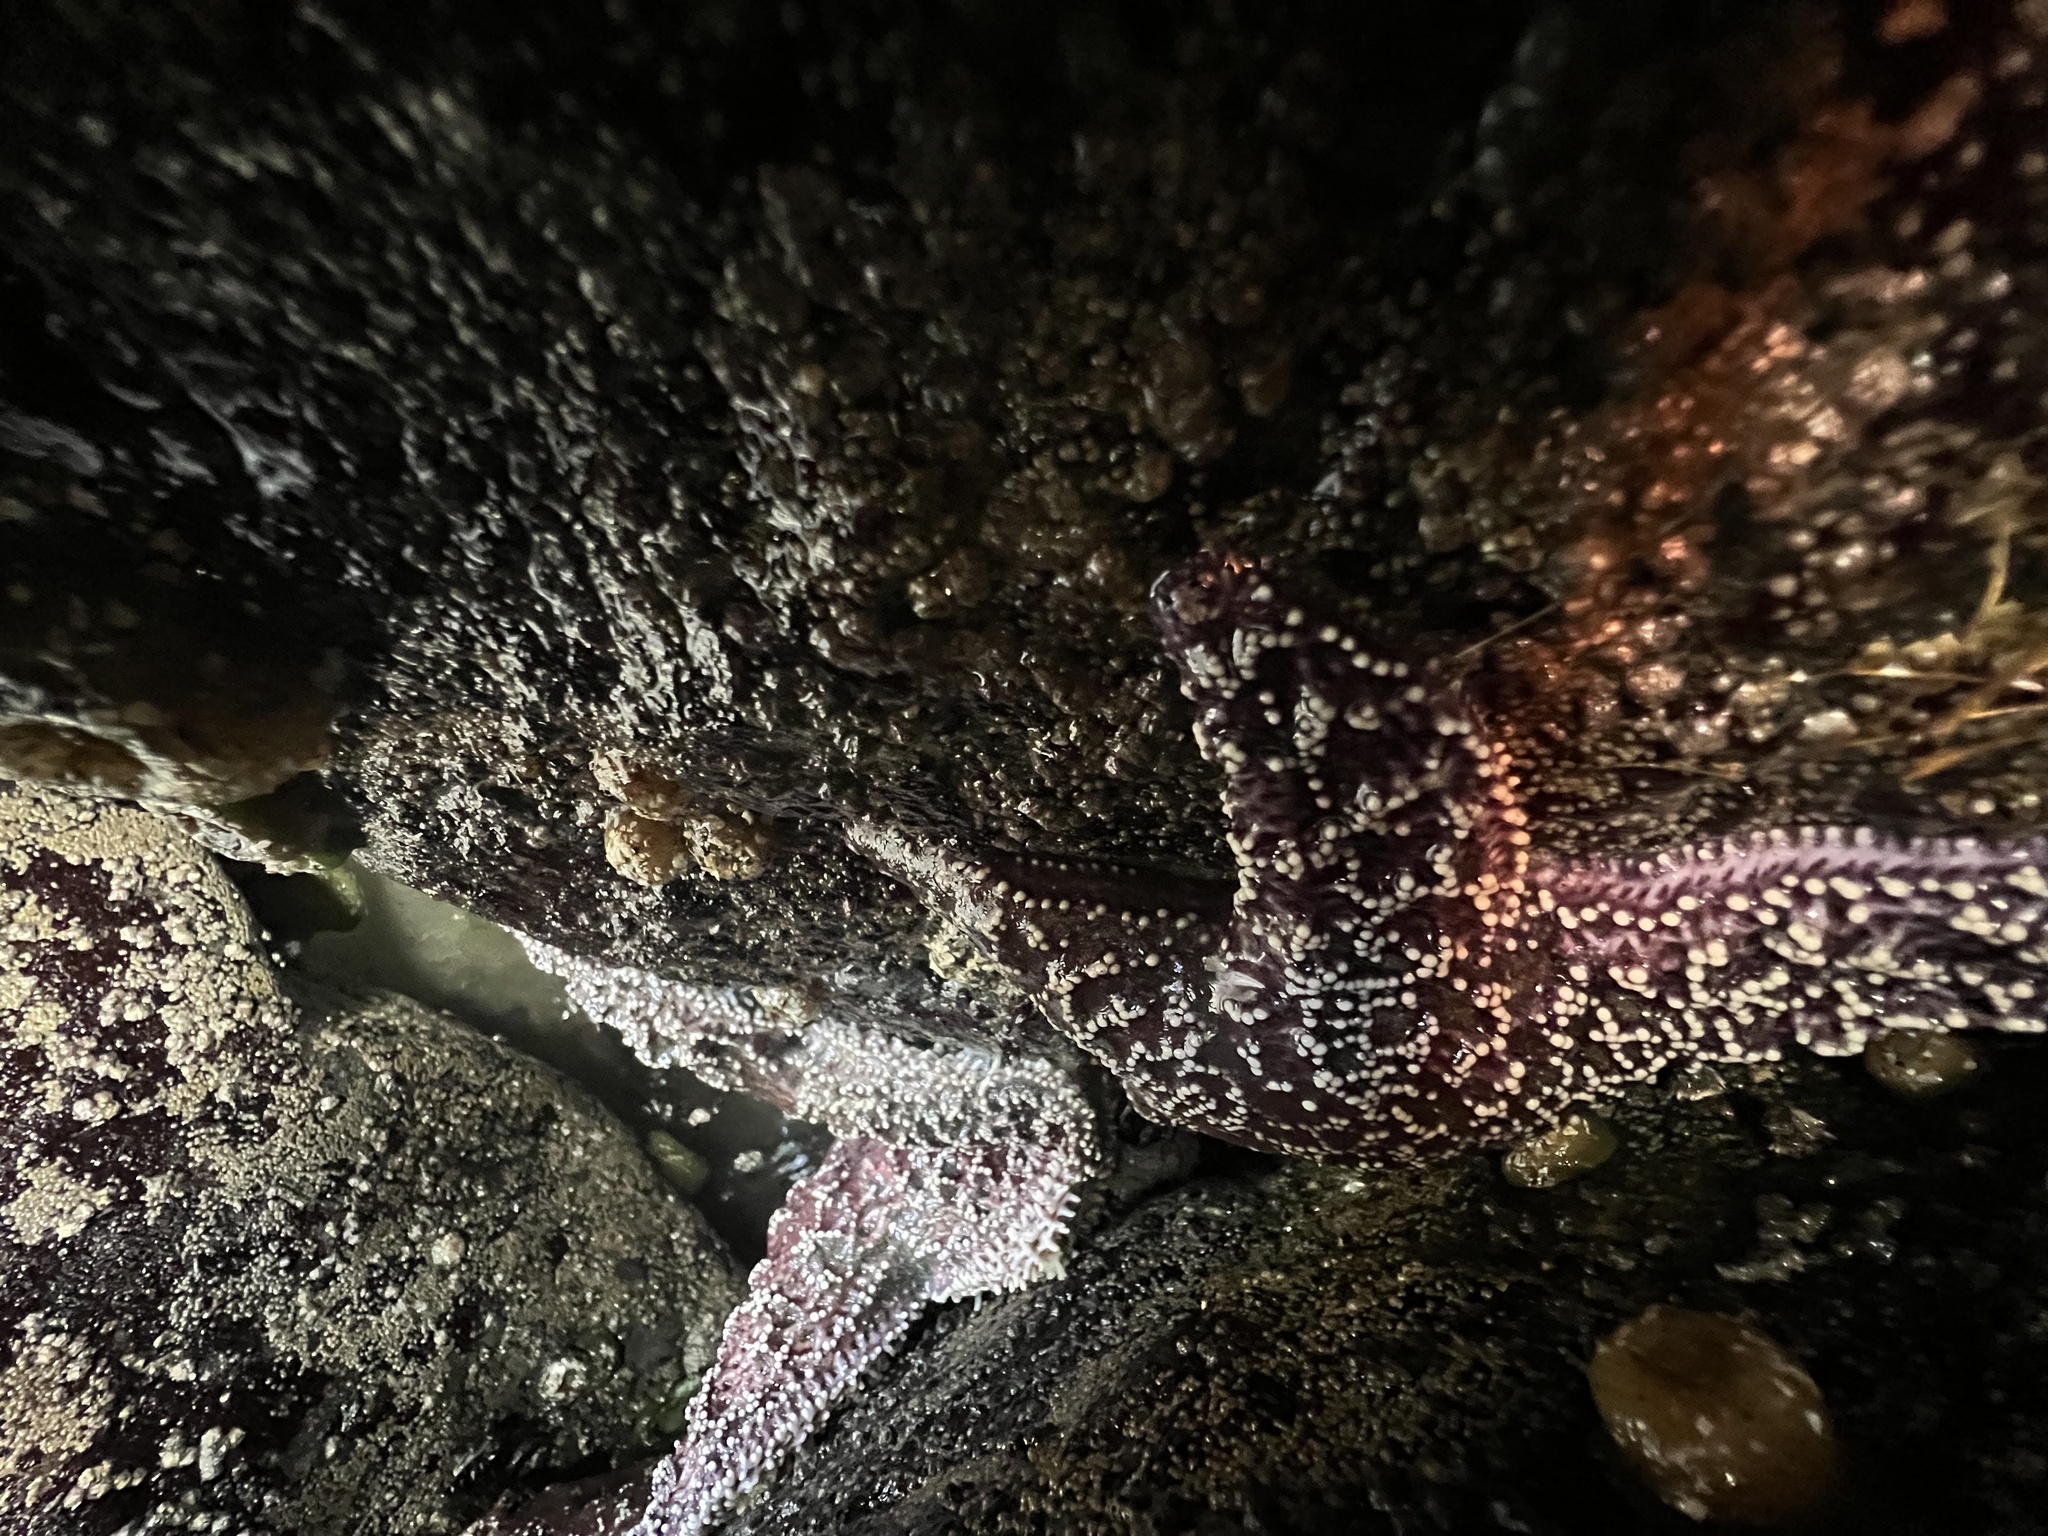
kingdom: Animalia
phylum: Echinodermata
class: Asteroidea
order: Forcipulatida
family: Asteriidae
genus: Pisaster
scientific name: Pisaster ochraceus
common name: Ochre stars
